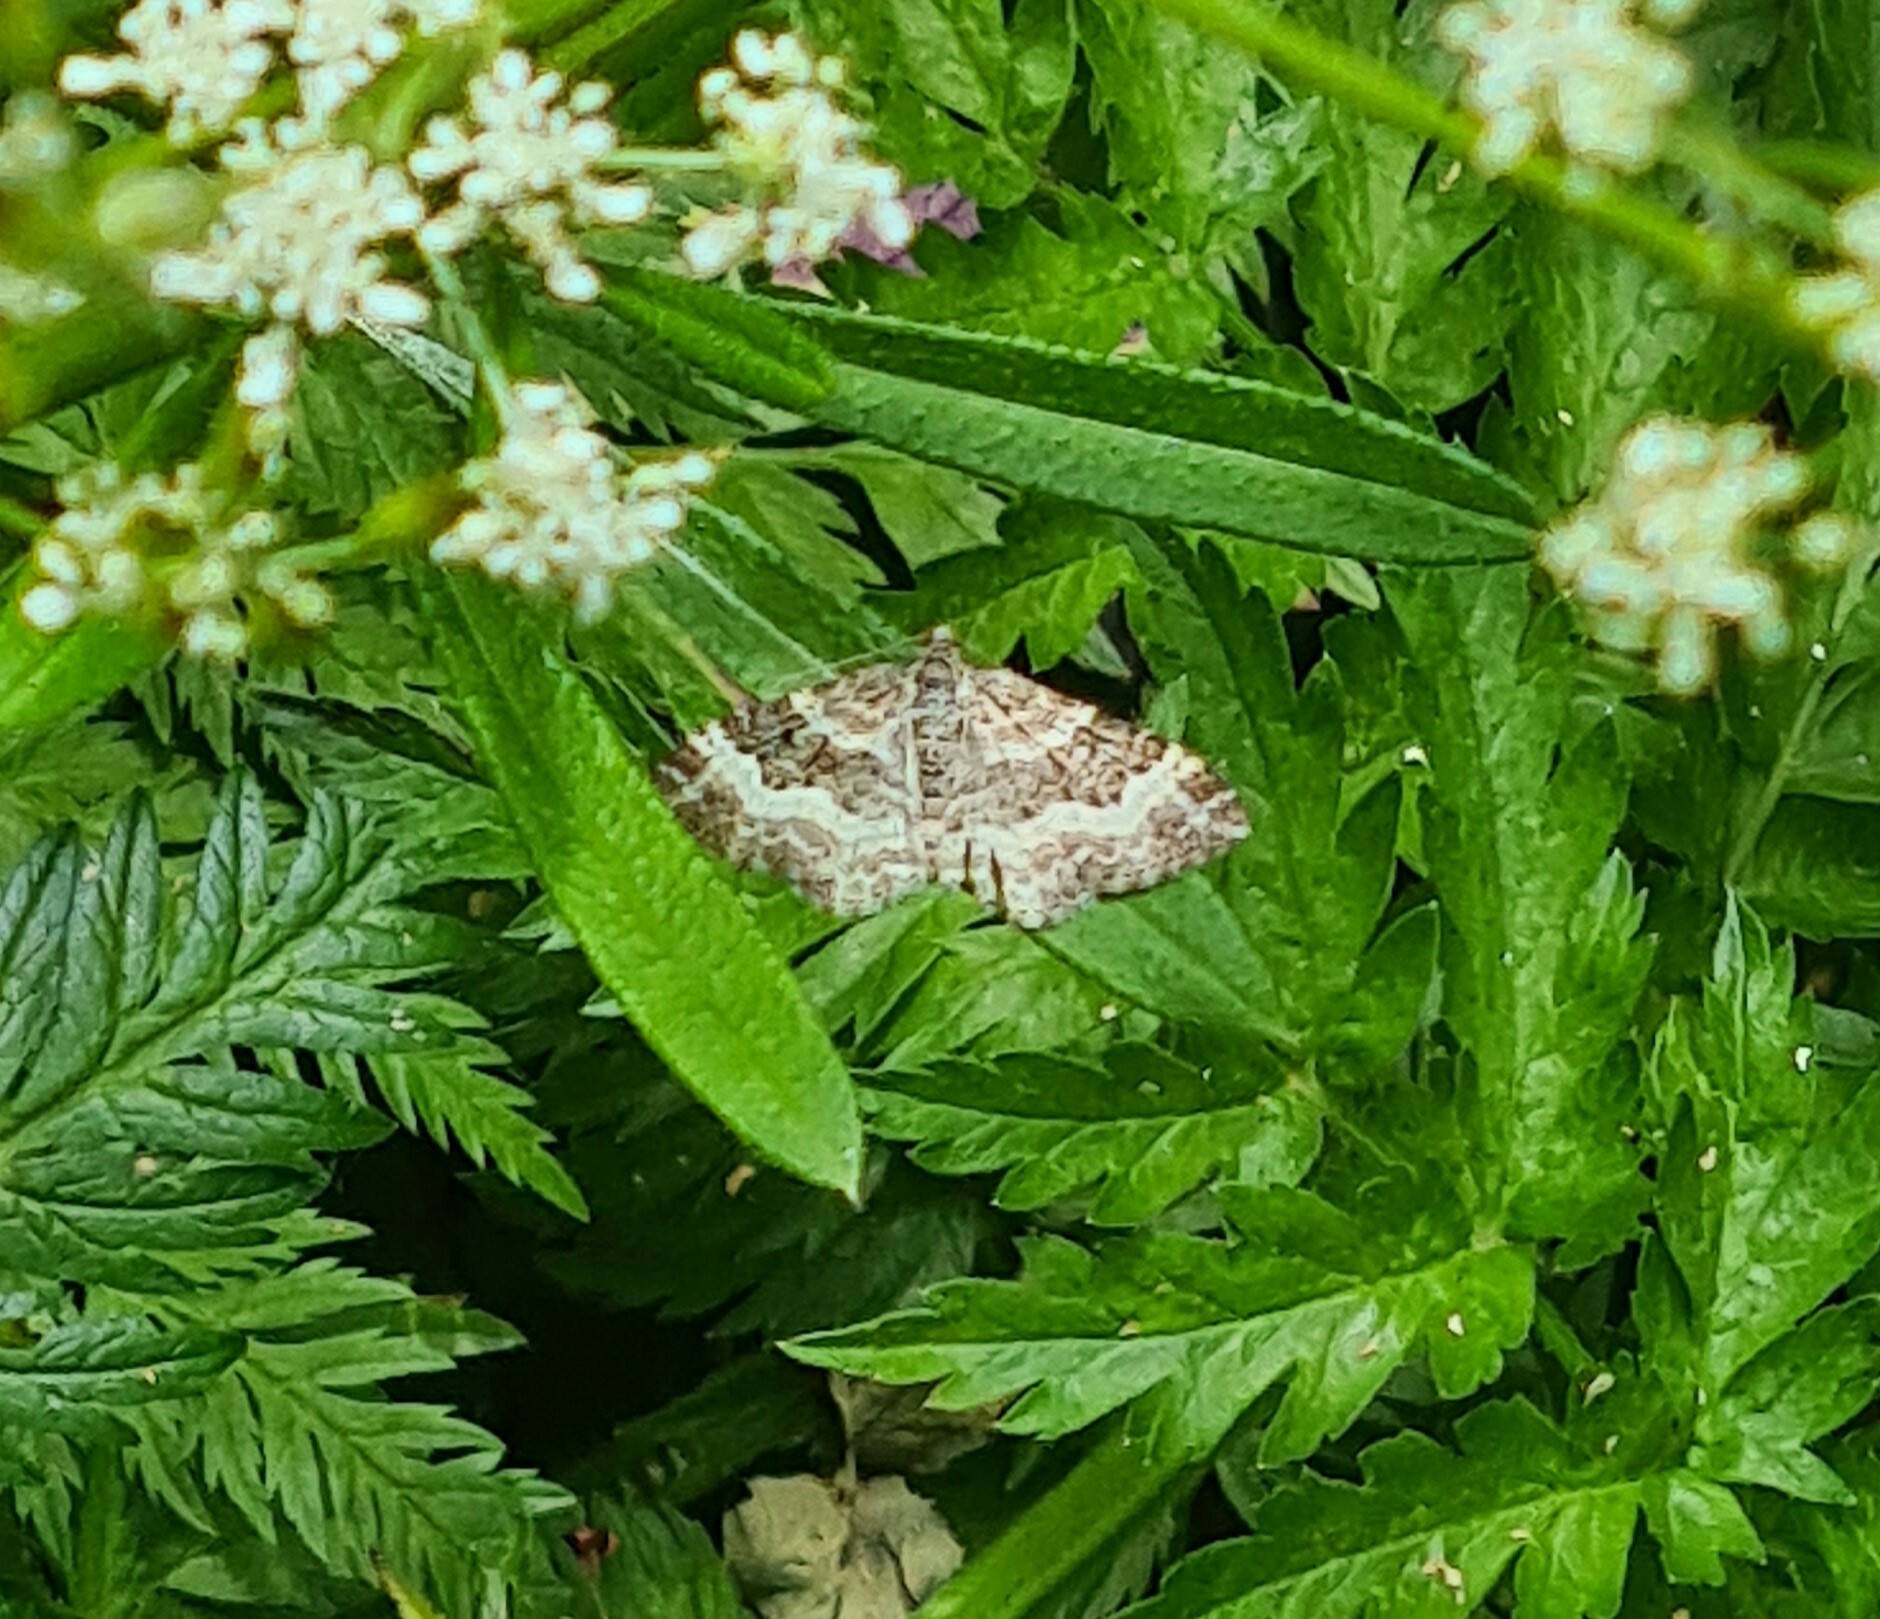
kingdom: Animalia
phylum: Arthropoda
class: Insecta
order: Lepidoptera
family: Geometridae
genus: Epirrhoe
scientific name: Epirrhoe alternata
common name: Common carpet
